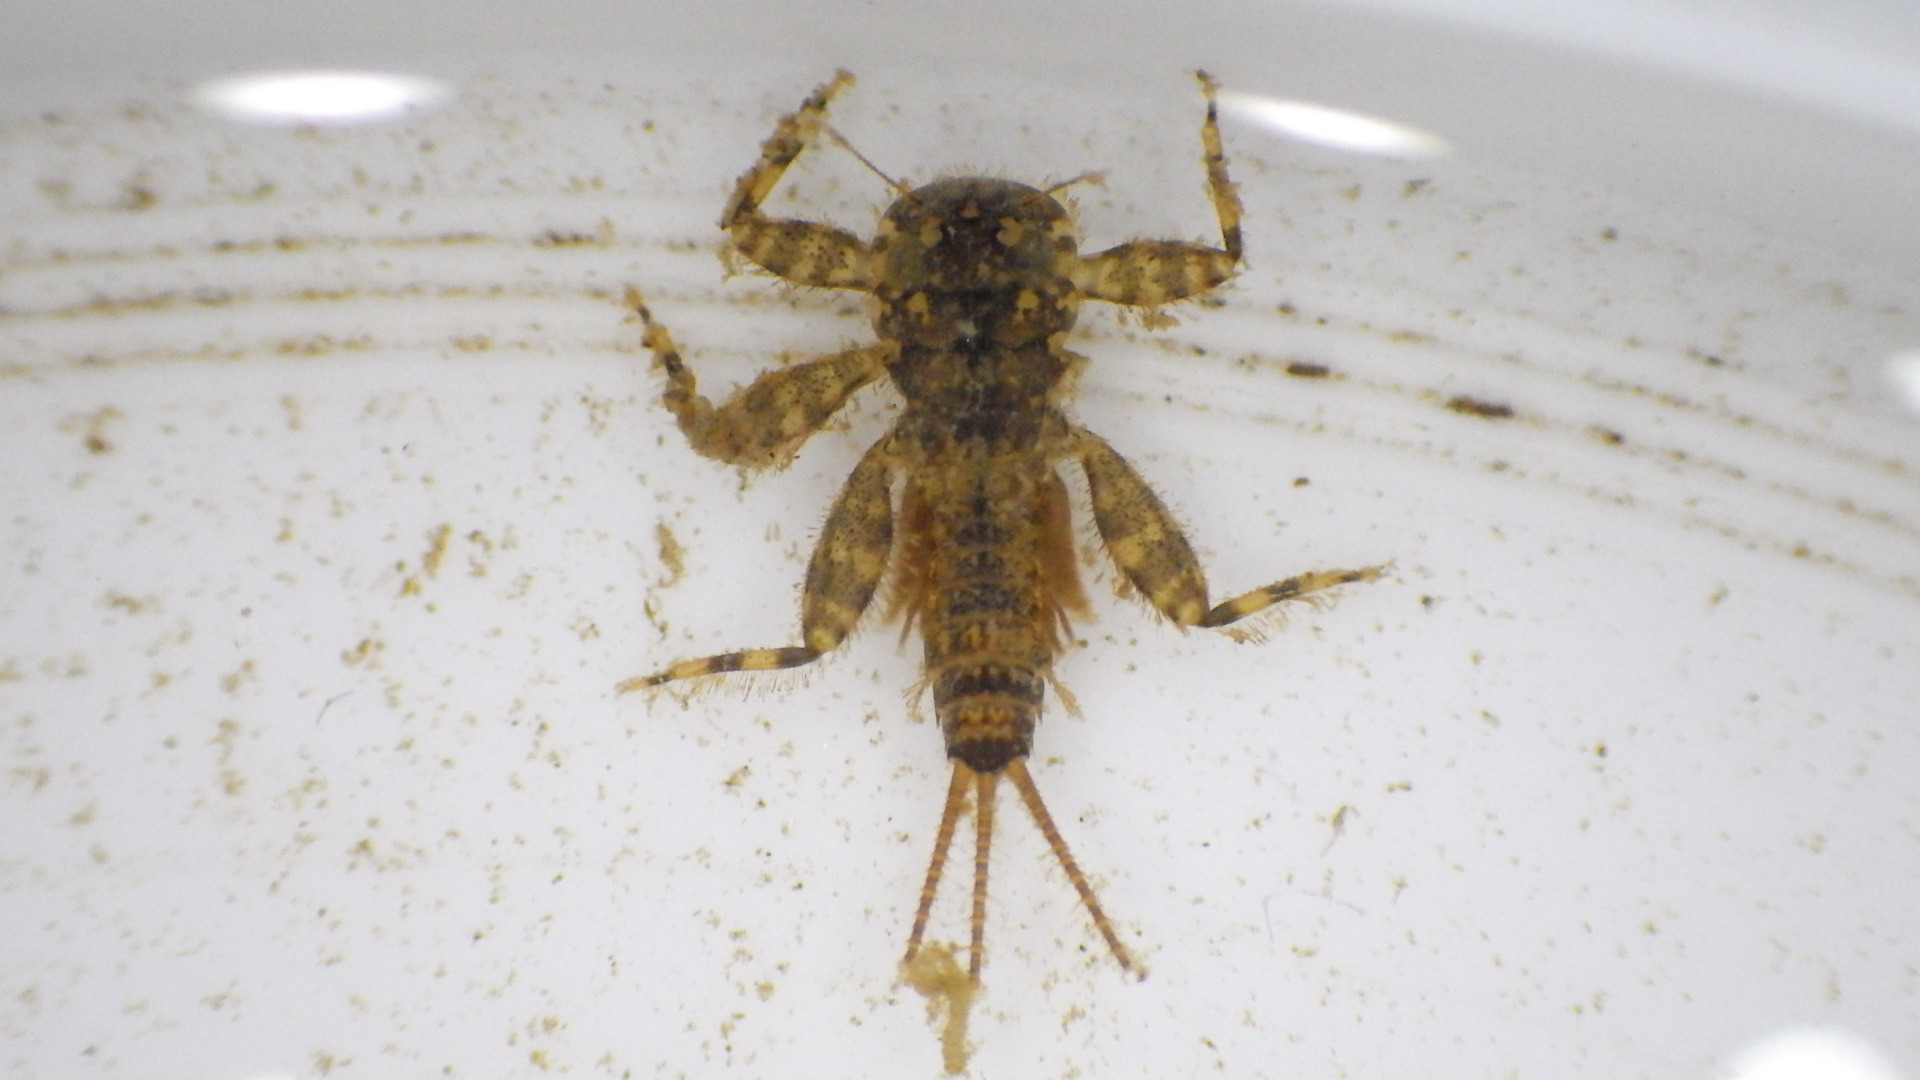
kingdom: Animalia
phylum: Arthropoda
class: Insecta
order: Ephemeroptera
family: Heptageniidae
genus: Maccaffertium
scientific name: Maccaffertium mediopunctatum
